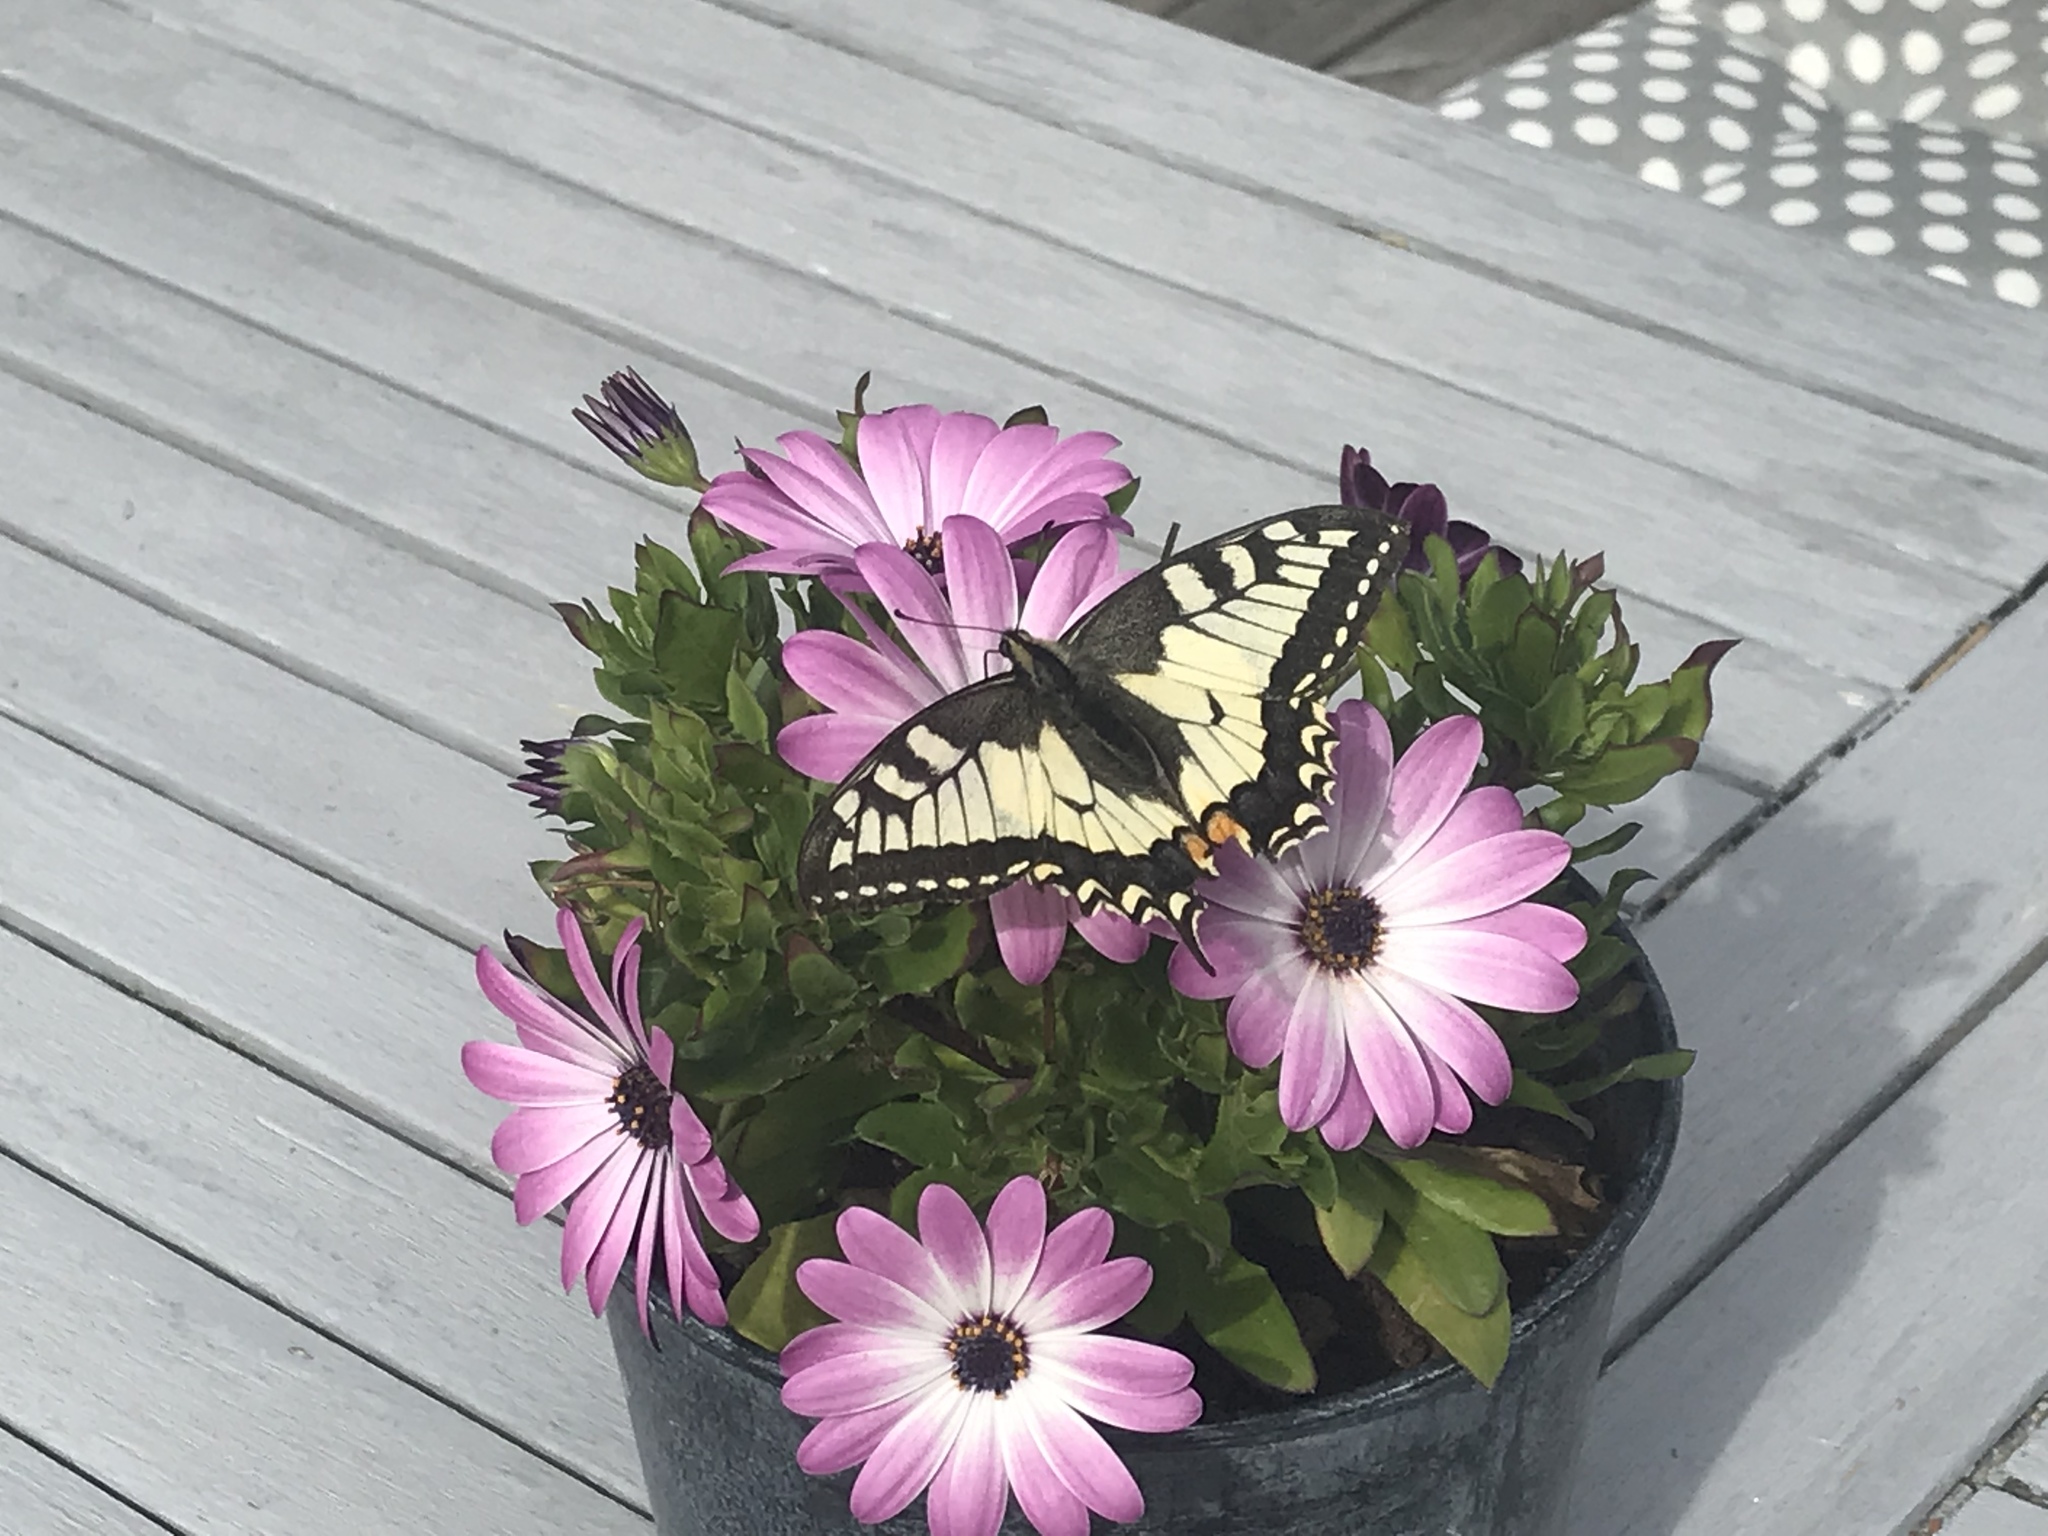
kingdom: Animalia
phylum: Arthropoda
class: Insecta
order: Lepidoptera
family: Papilionidae
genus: Papilio
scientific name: Papilio machaon
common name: Swallowtail
